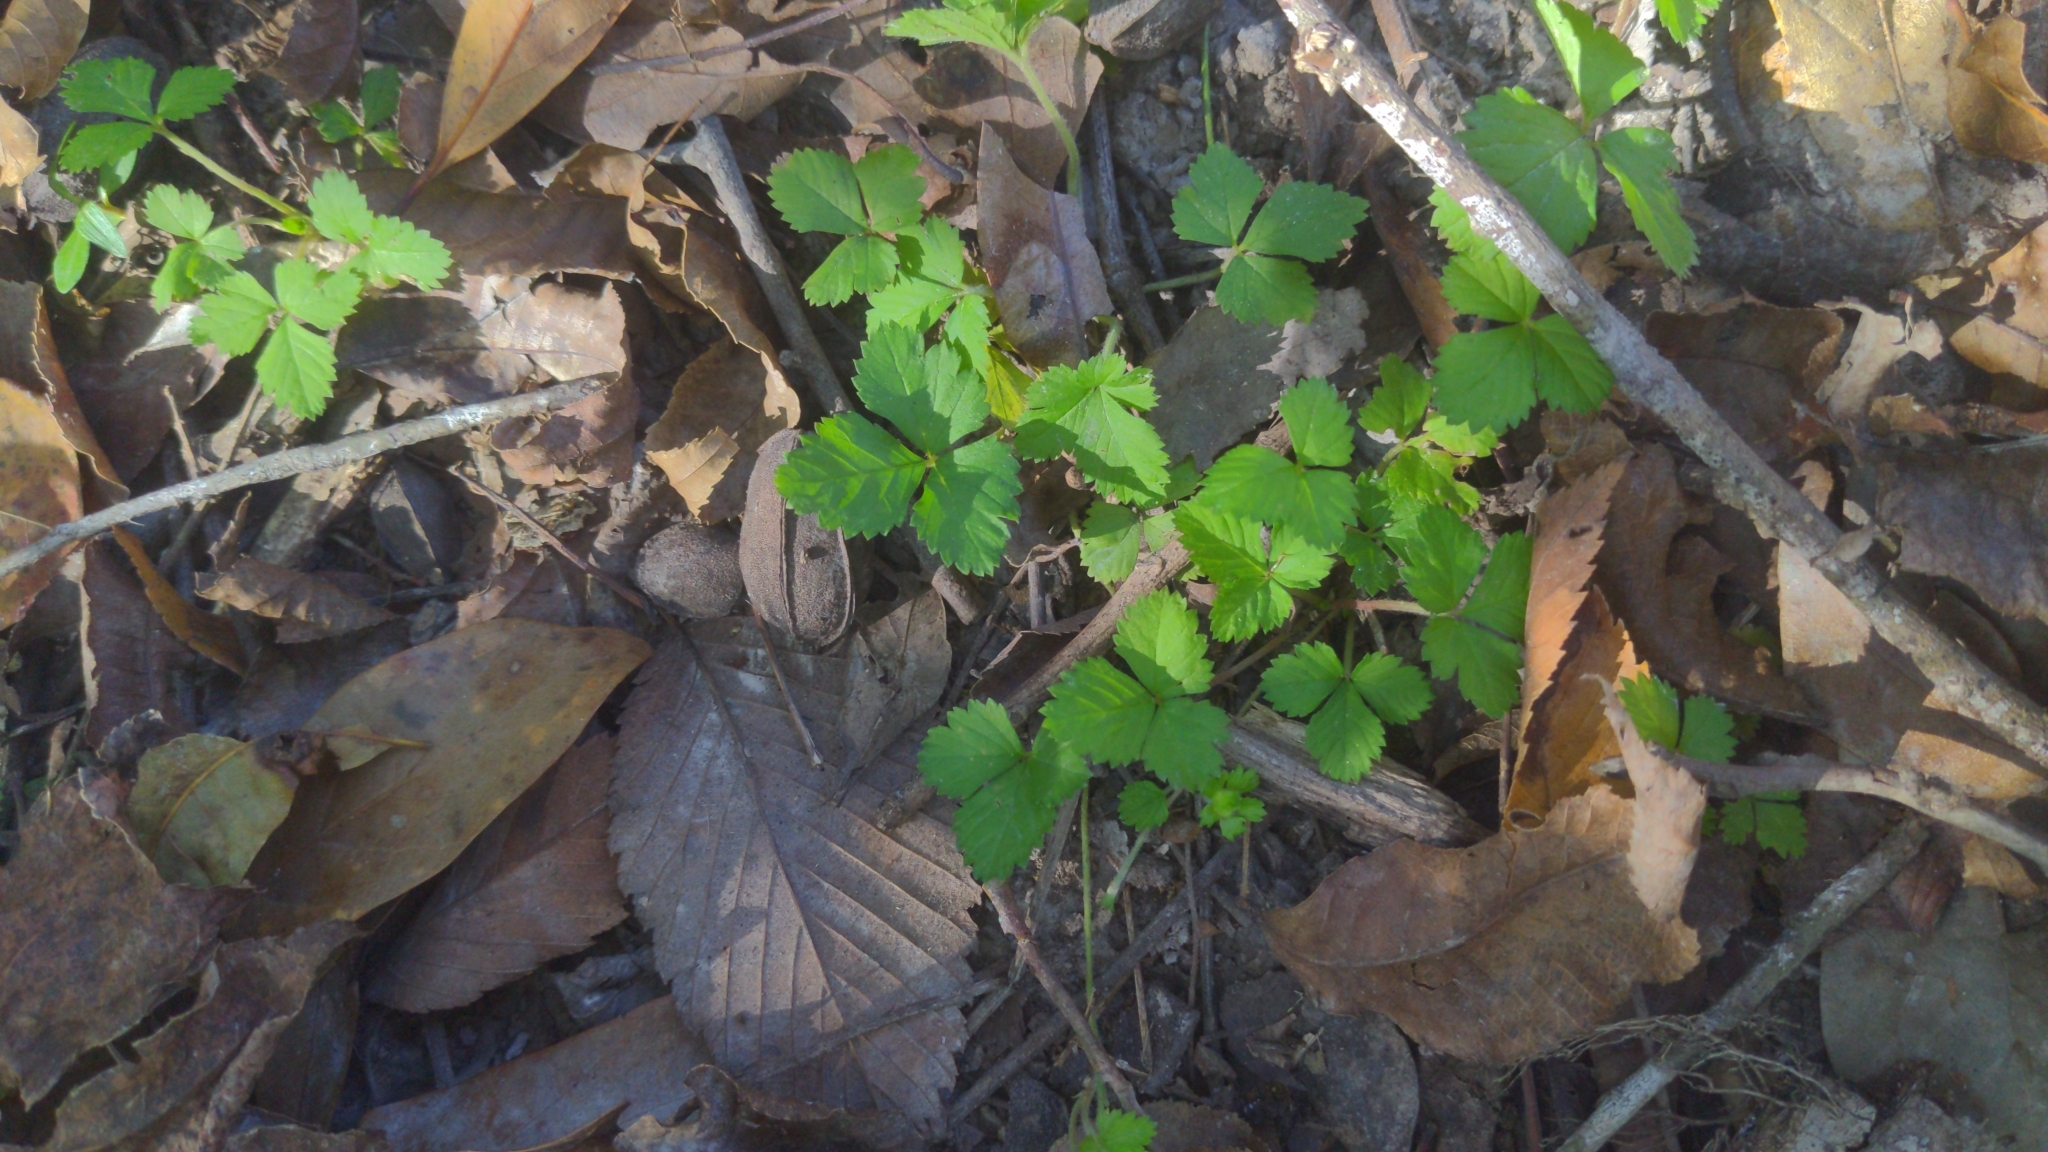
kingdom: Plantae
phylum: Tracheophyta
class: Magnoliopsida
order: Rosales
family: Rosaceae
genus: Potentilla
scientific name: Potentilla indica
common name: Yellow-flowered strawberry
